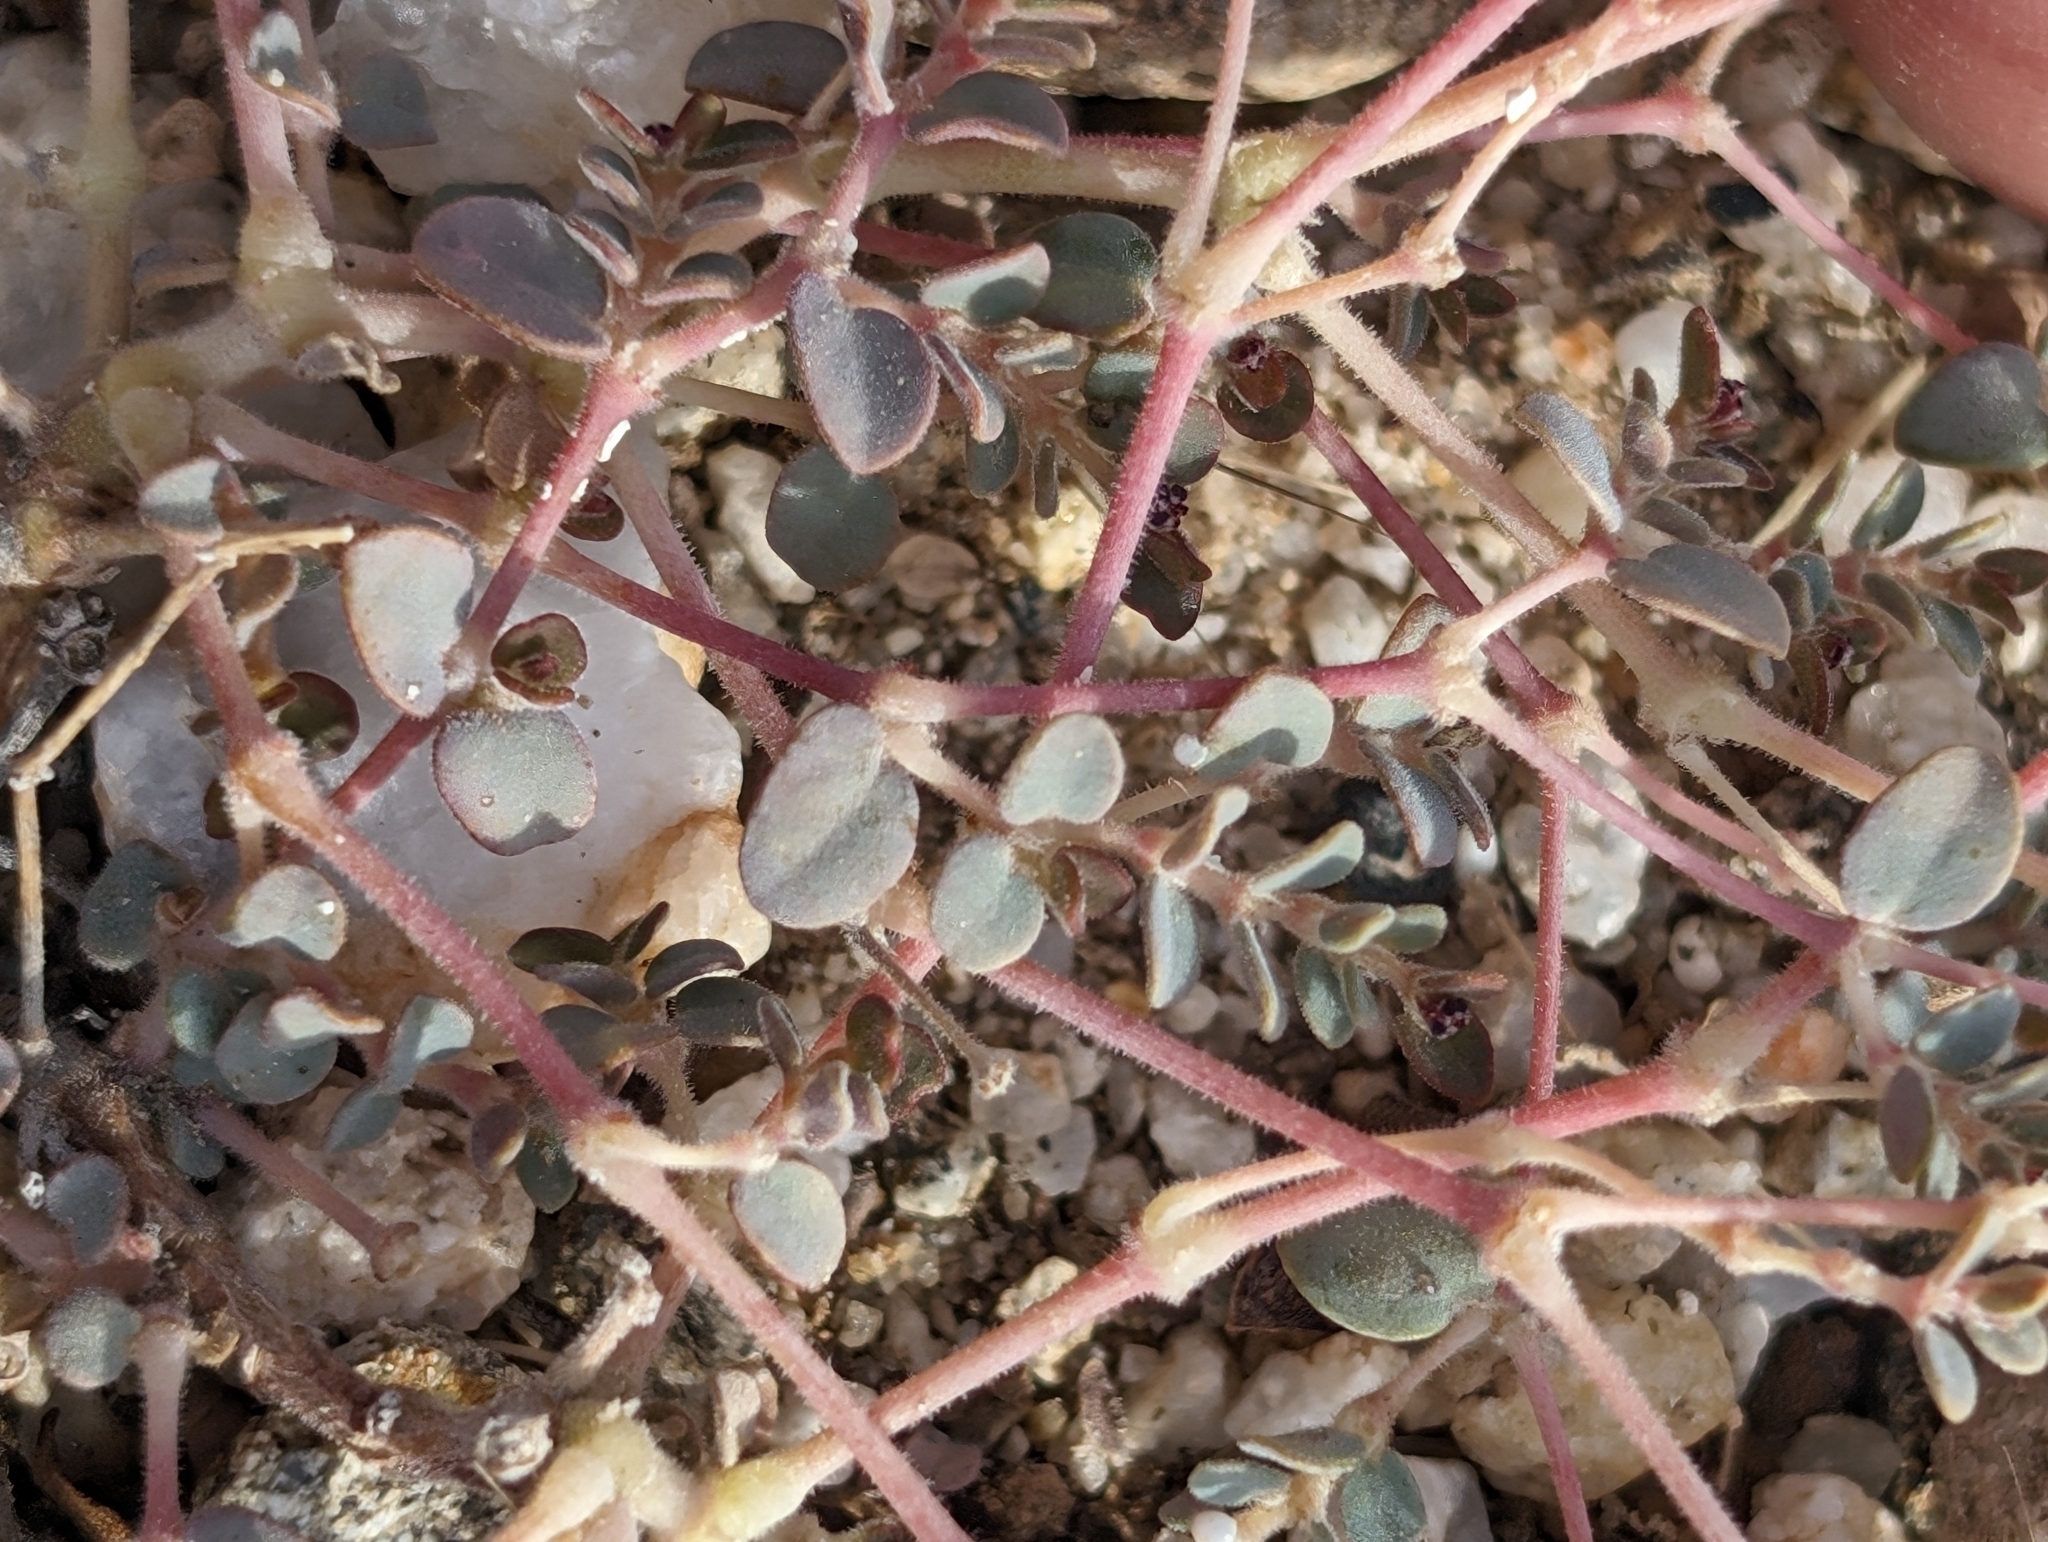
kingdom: Plantae
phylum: Tracheophyta
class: Magnoliopsida
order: Malpighiales
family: Euphorbiaceae
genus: Euphorbia
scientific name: Euphorbia polycarpa
